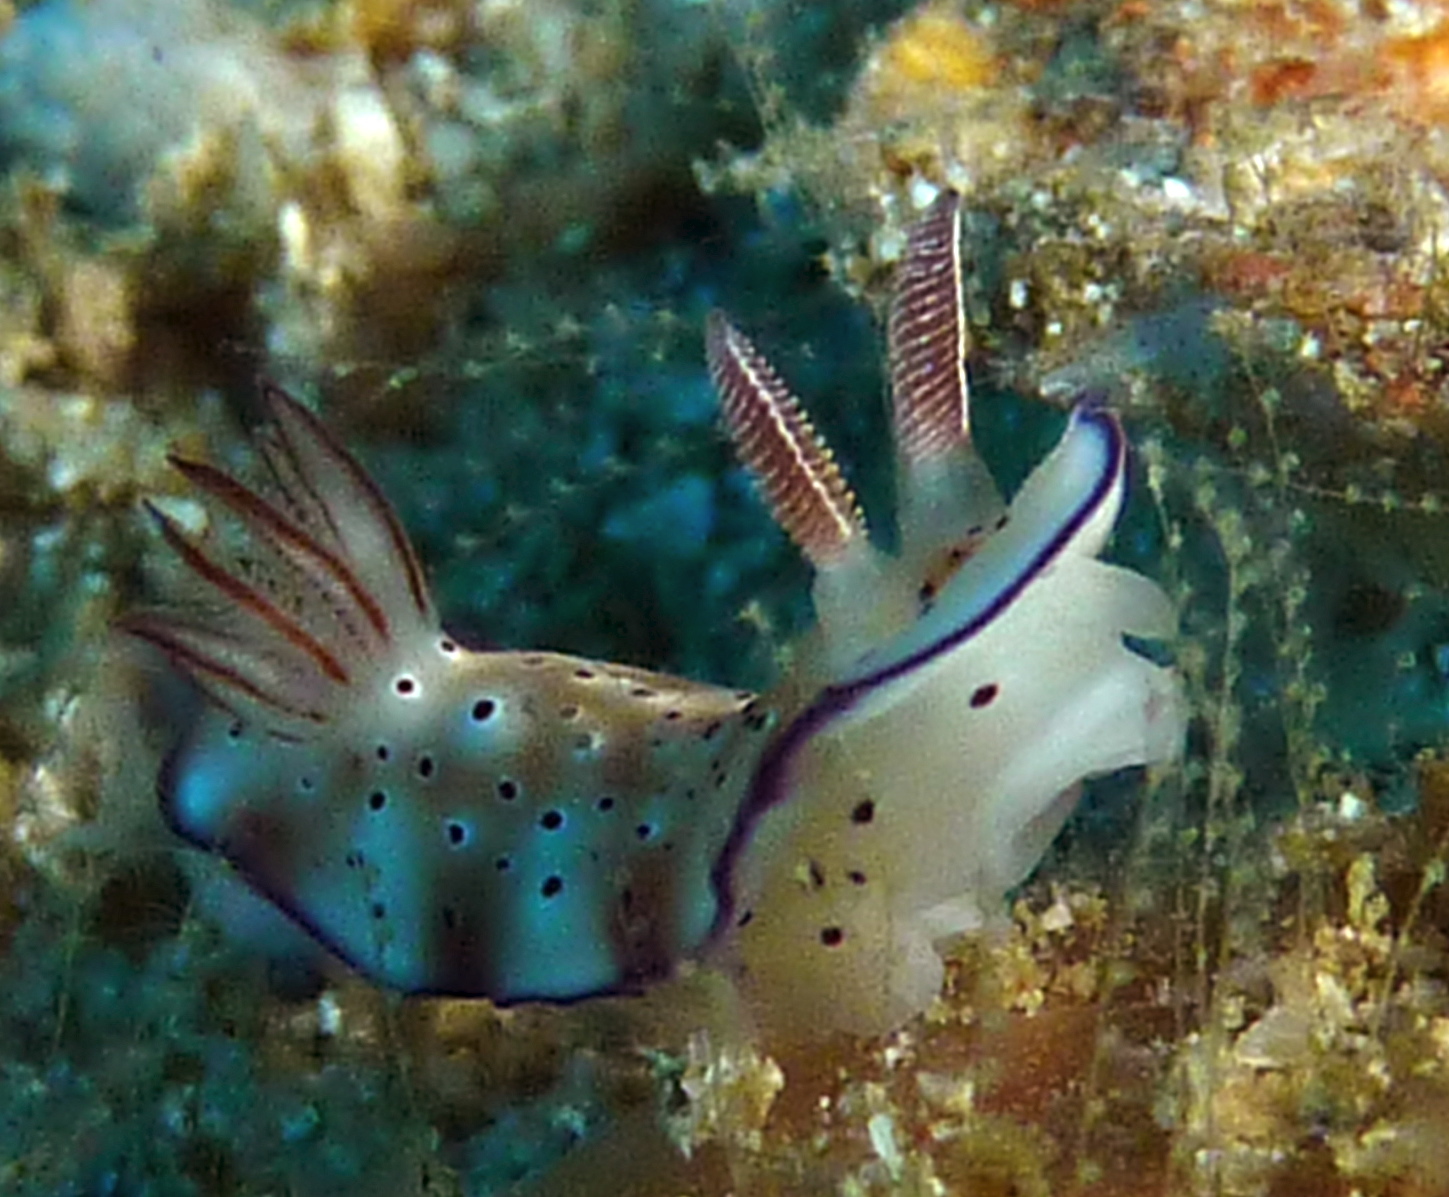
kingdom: Animalia
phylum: Mollusca
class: Gastropoda
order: Nudibranchia
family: Chromodorididae
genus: Hypselodoris
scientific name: Hypselodoris tryoni
